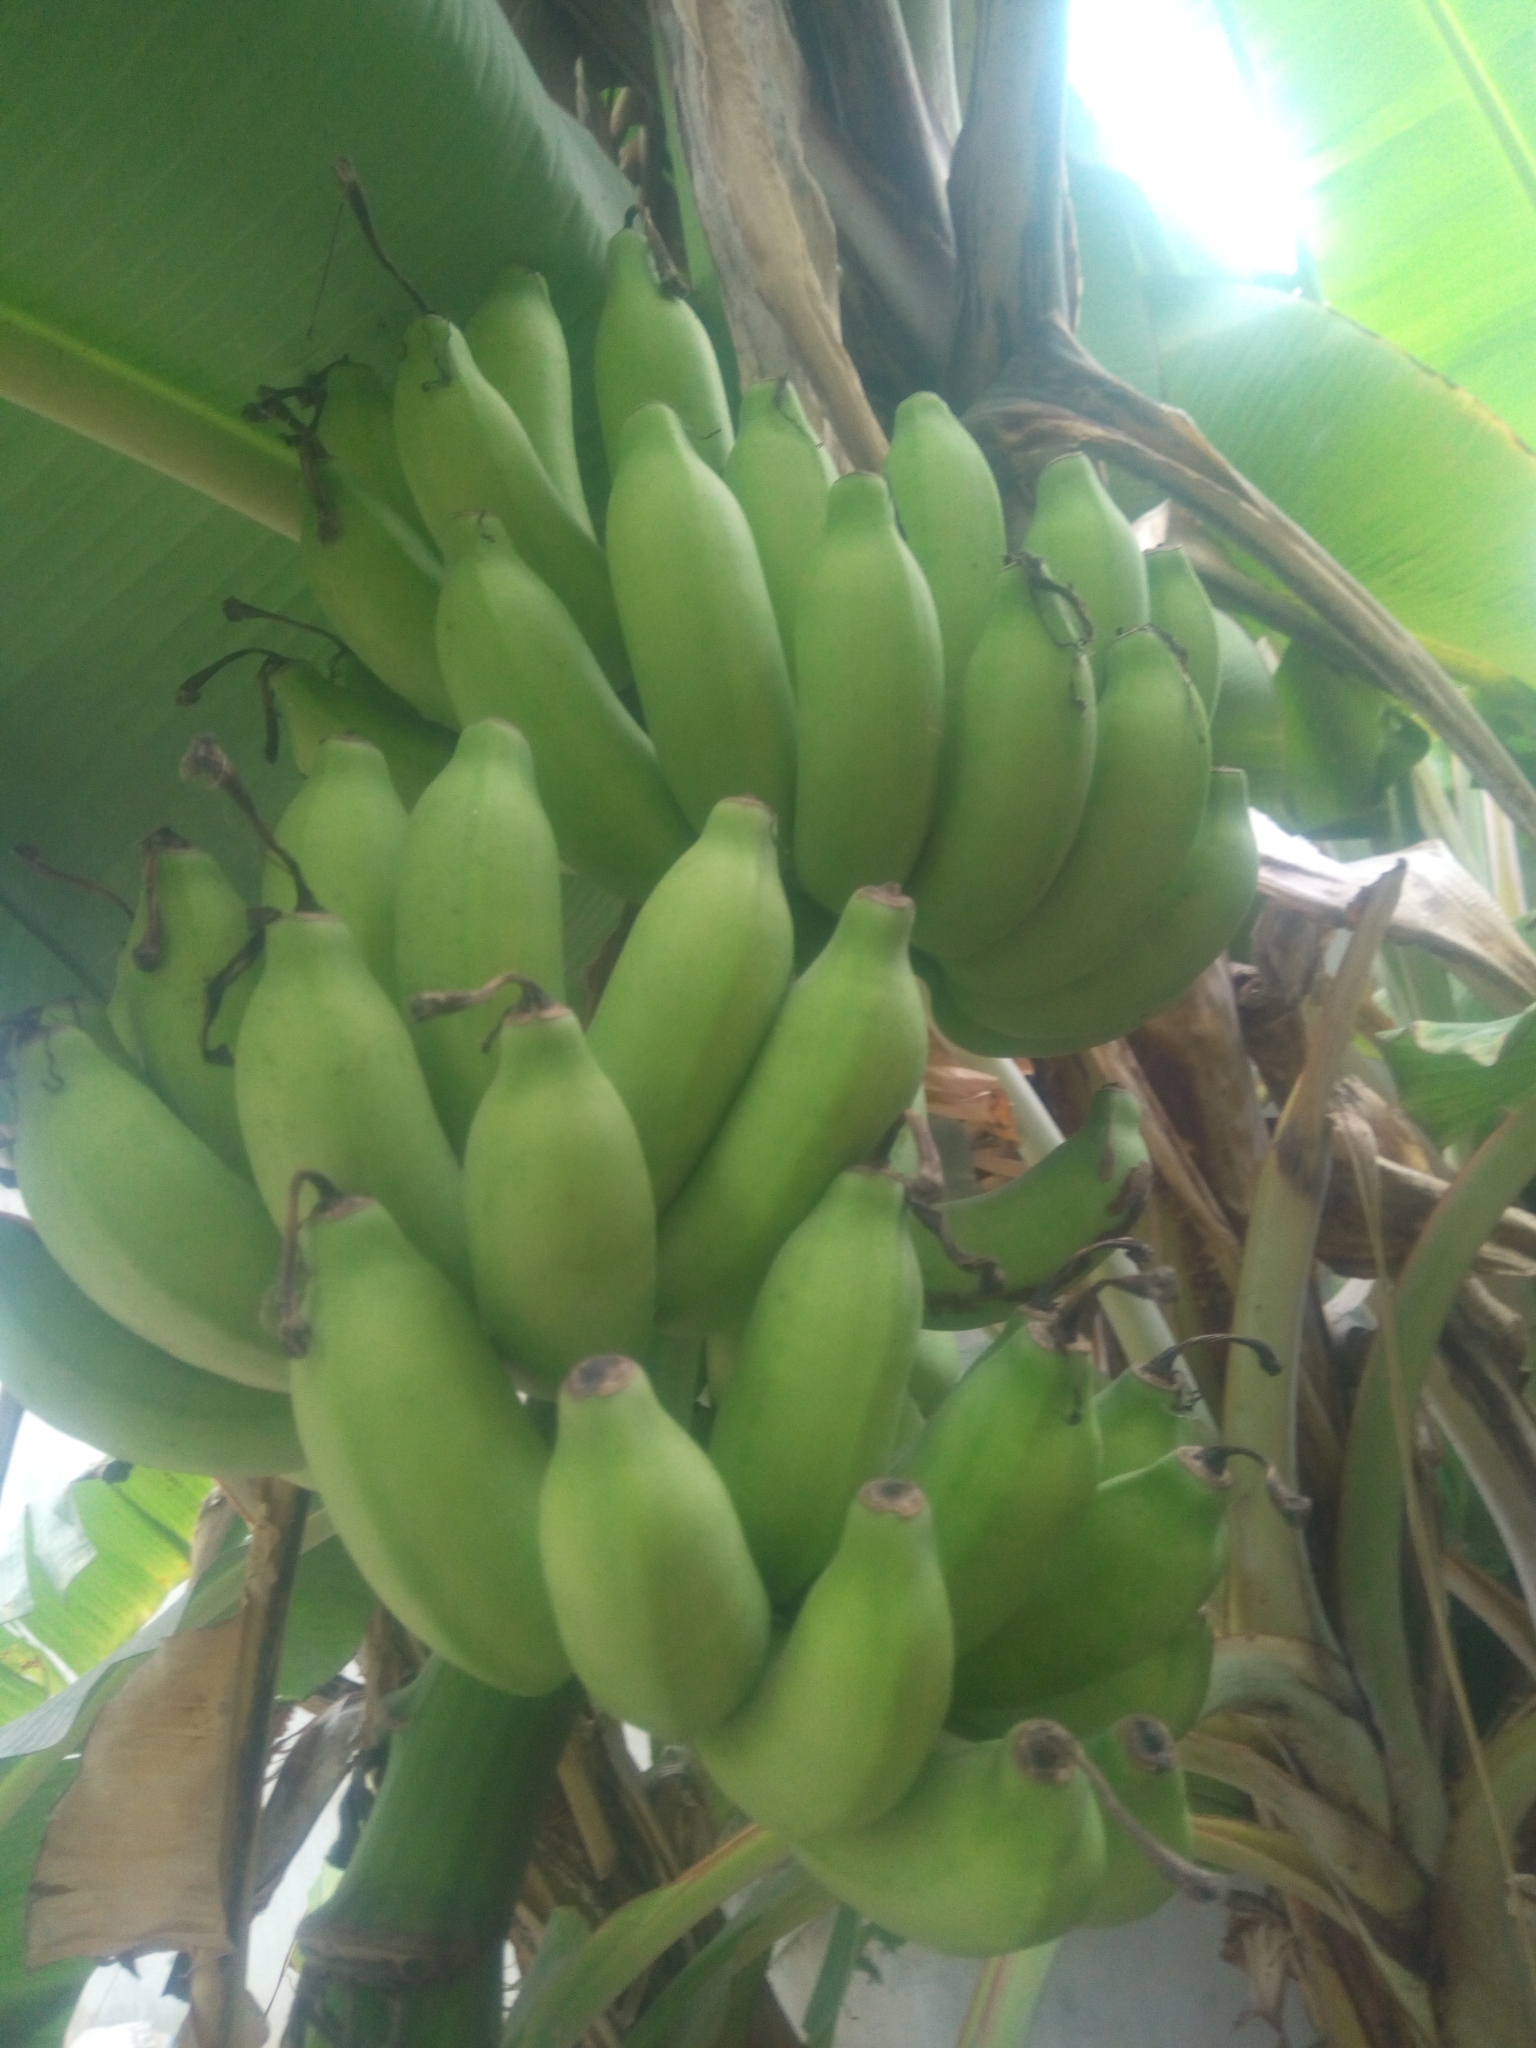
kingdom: Plantae
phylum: Tracheophyta
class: Liliopsida
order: Zingiberales
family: Musaceae
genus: Musa
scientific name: Musa paradisiaca
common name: French plantain
